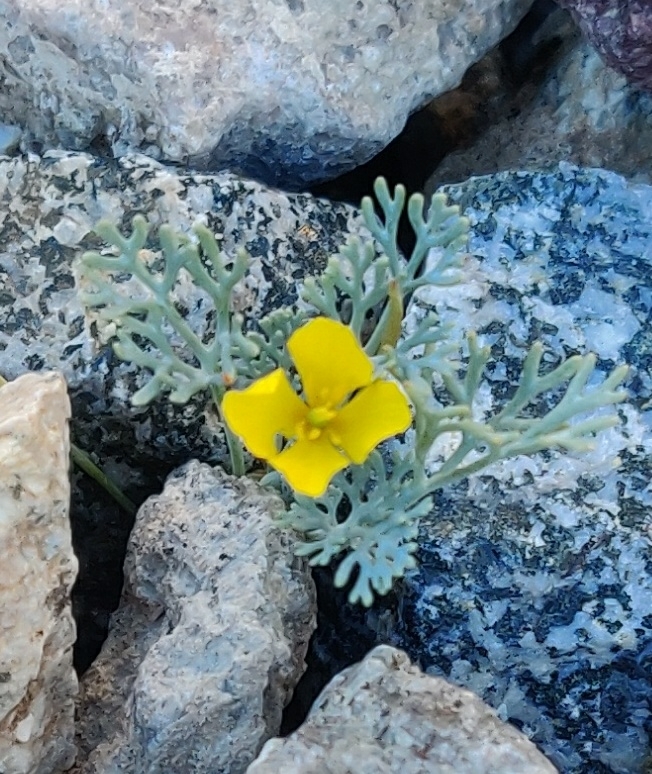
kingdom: Plantae
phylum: Tracheophyta
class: Magnoliopsida
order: Ranunculales
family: Papaveraceae
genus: Eschscholzia
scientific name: Eschscholzia minutiflora
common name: Small-flower california-poppy
